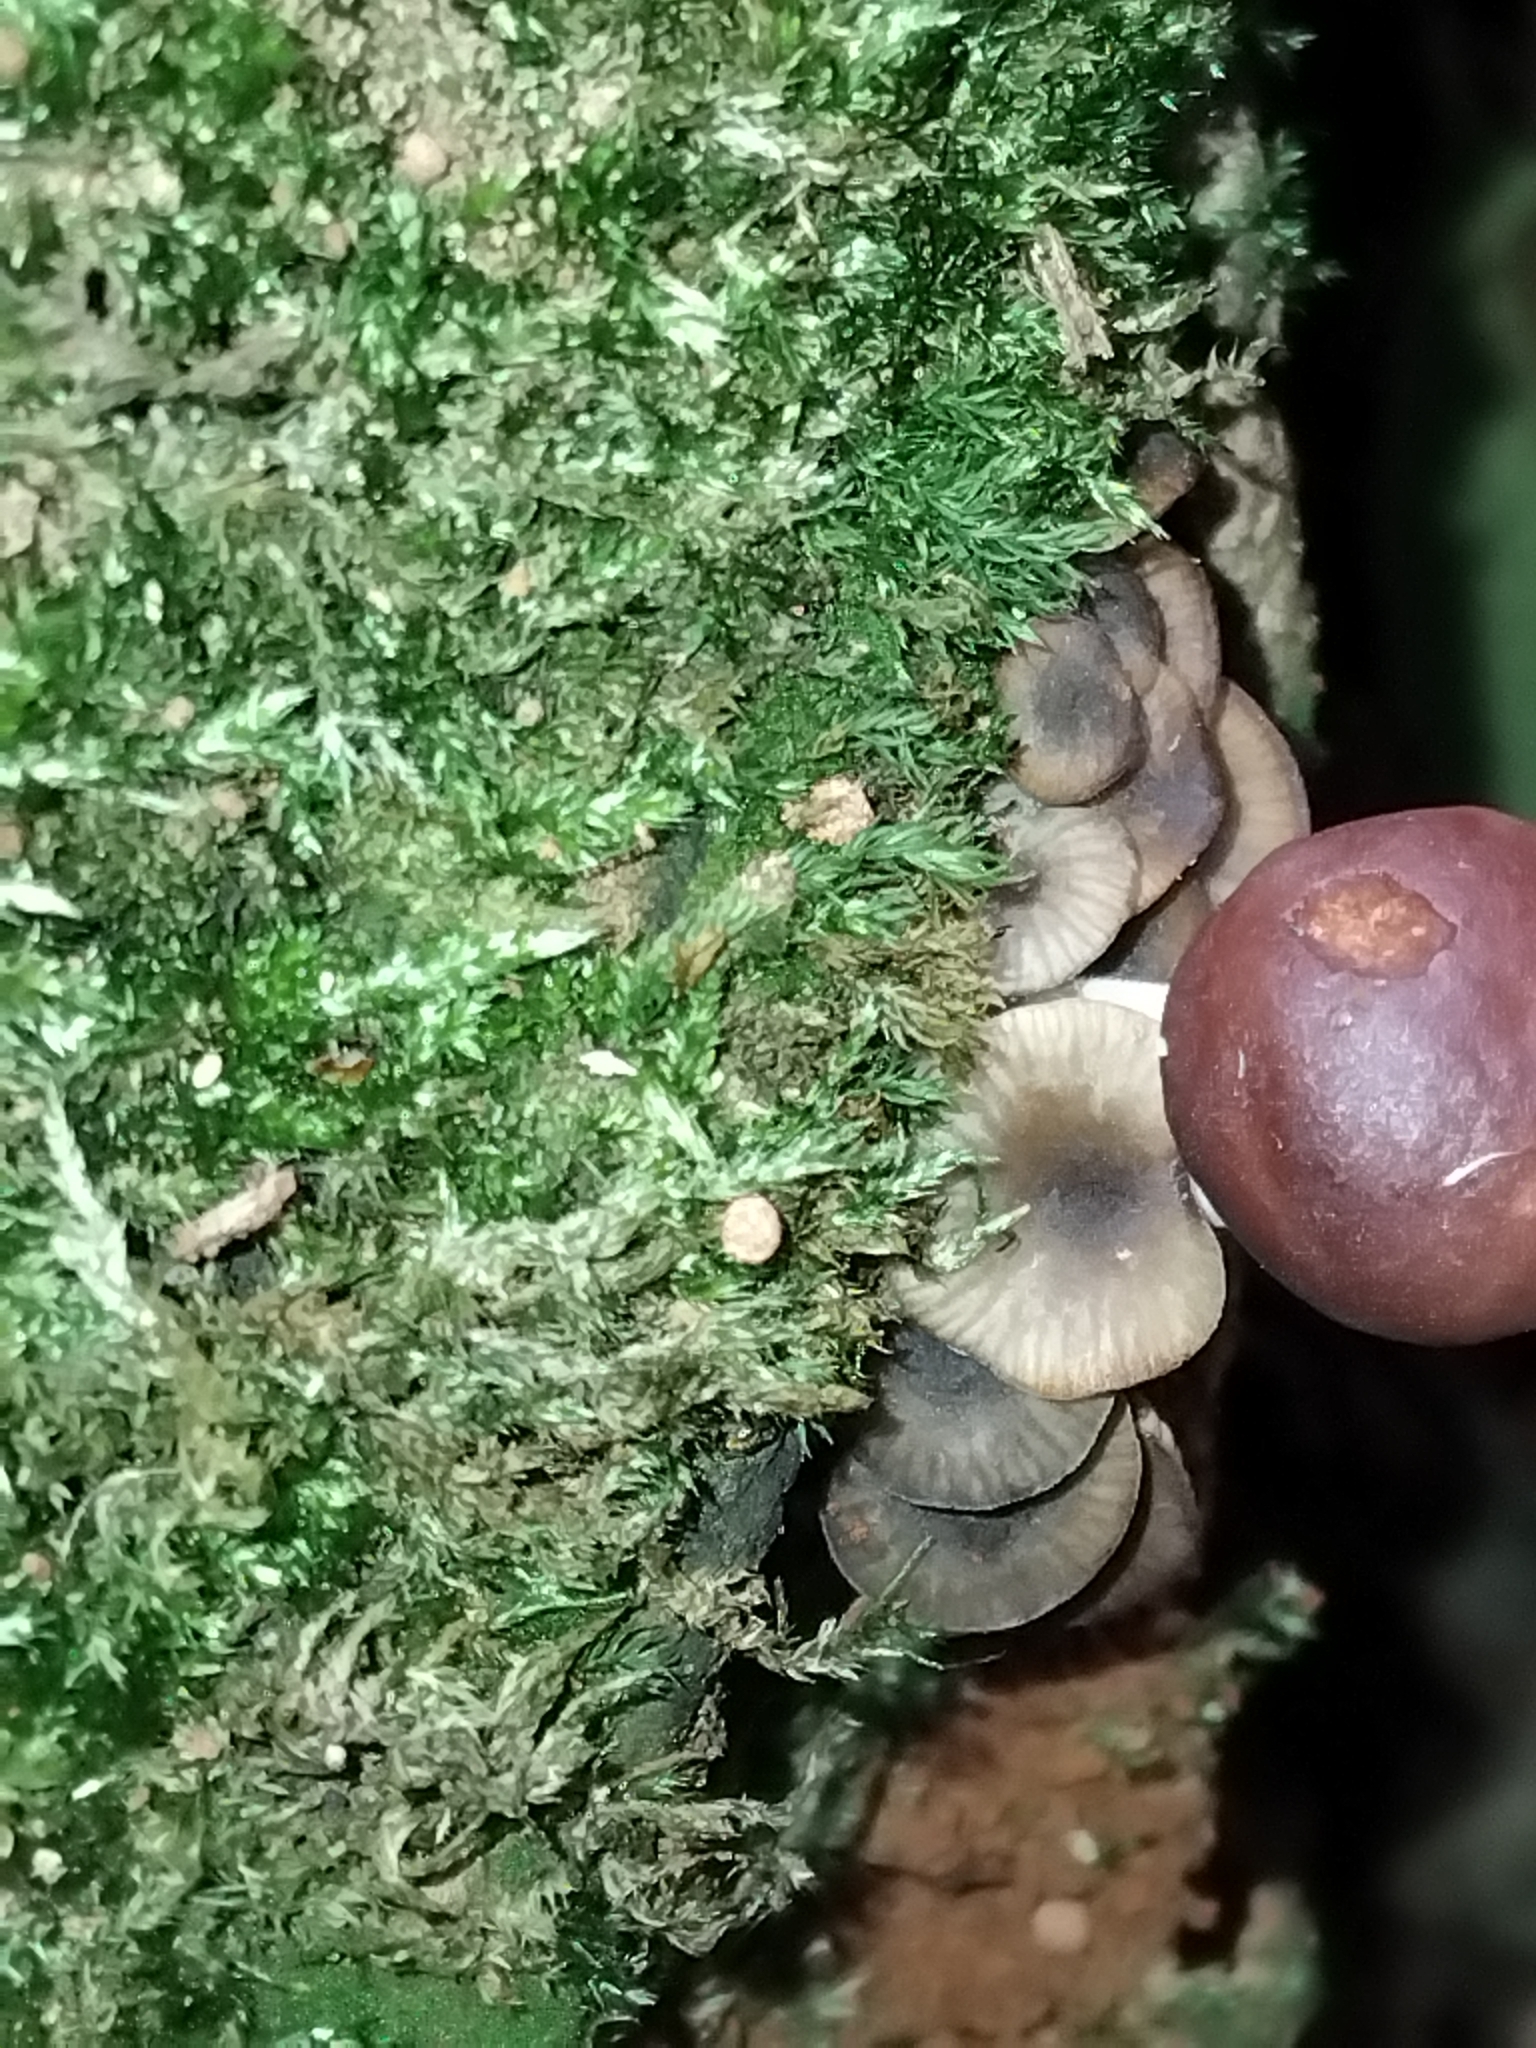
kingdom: Fungi
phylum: Basidiomycota
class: Agaricomycetes
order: Boletales
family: Boletaceae
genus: Fistulinella
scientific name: Fistulinella prunicolor
